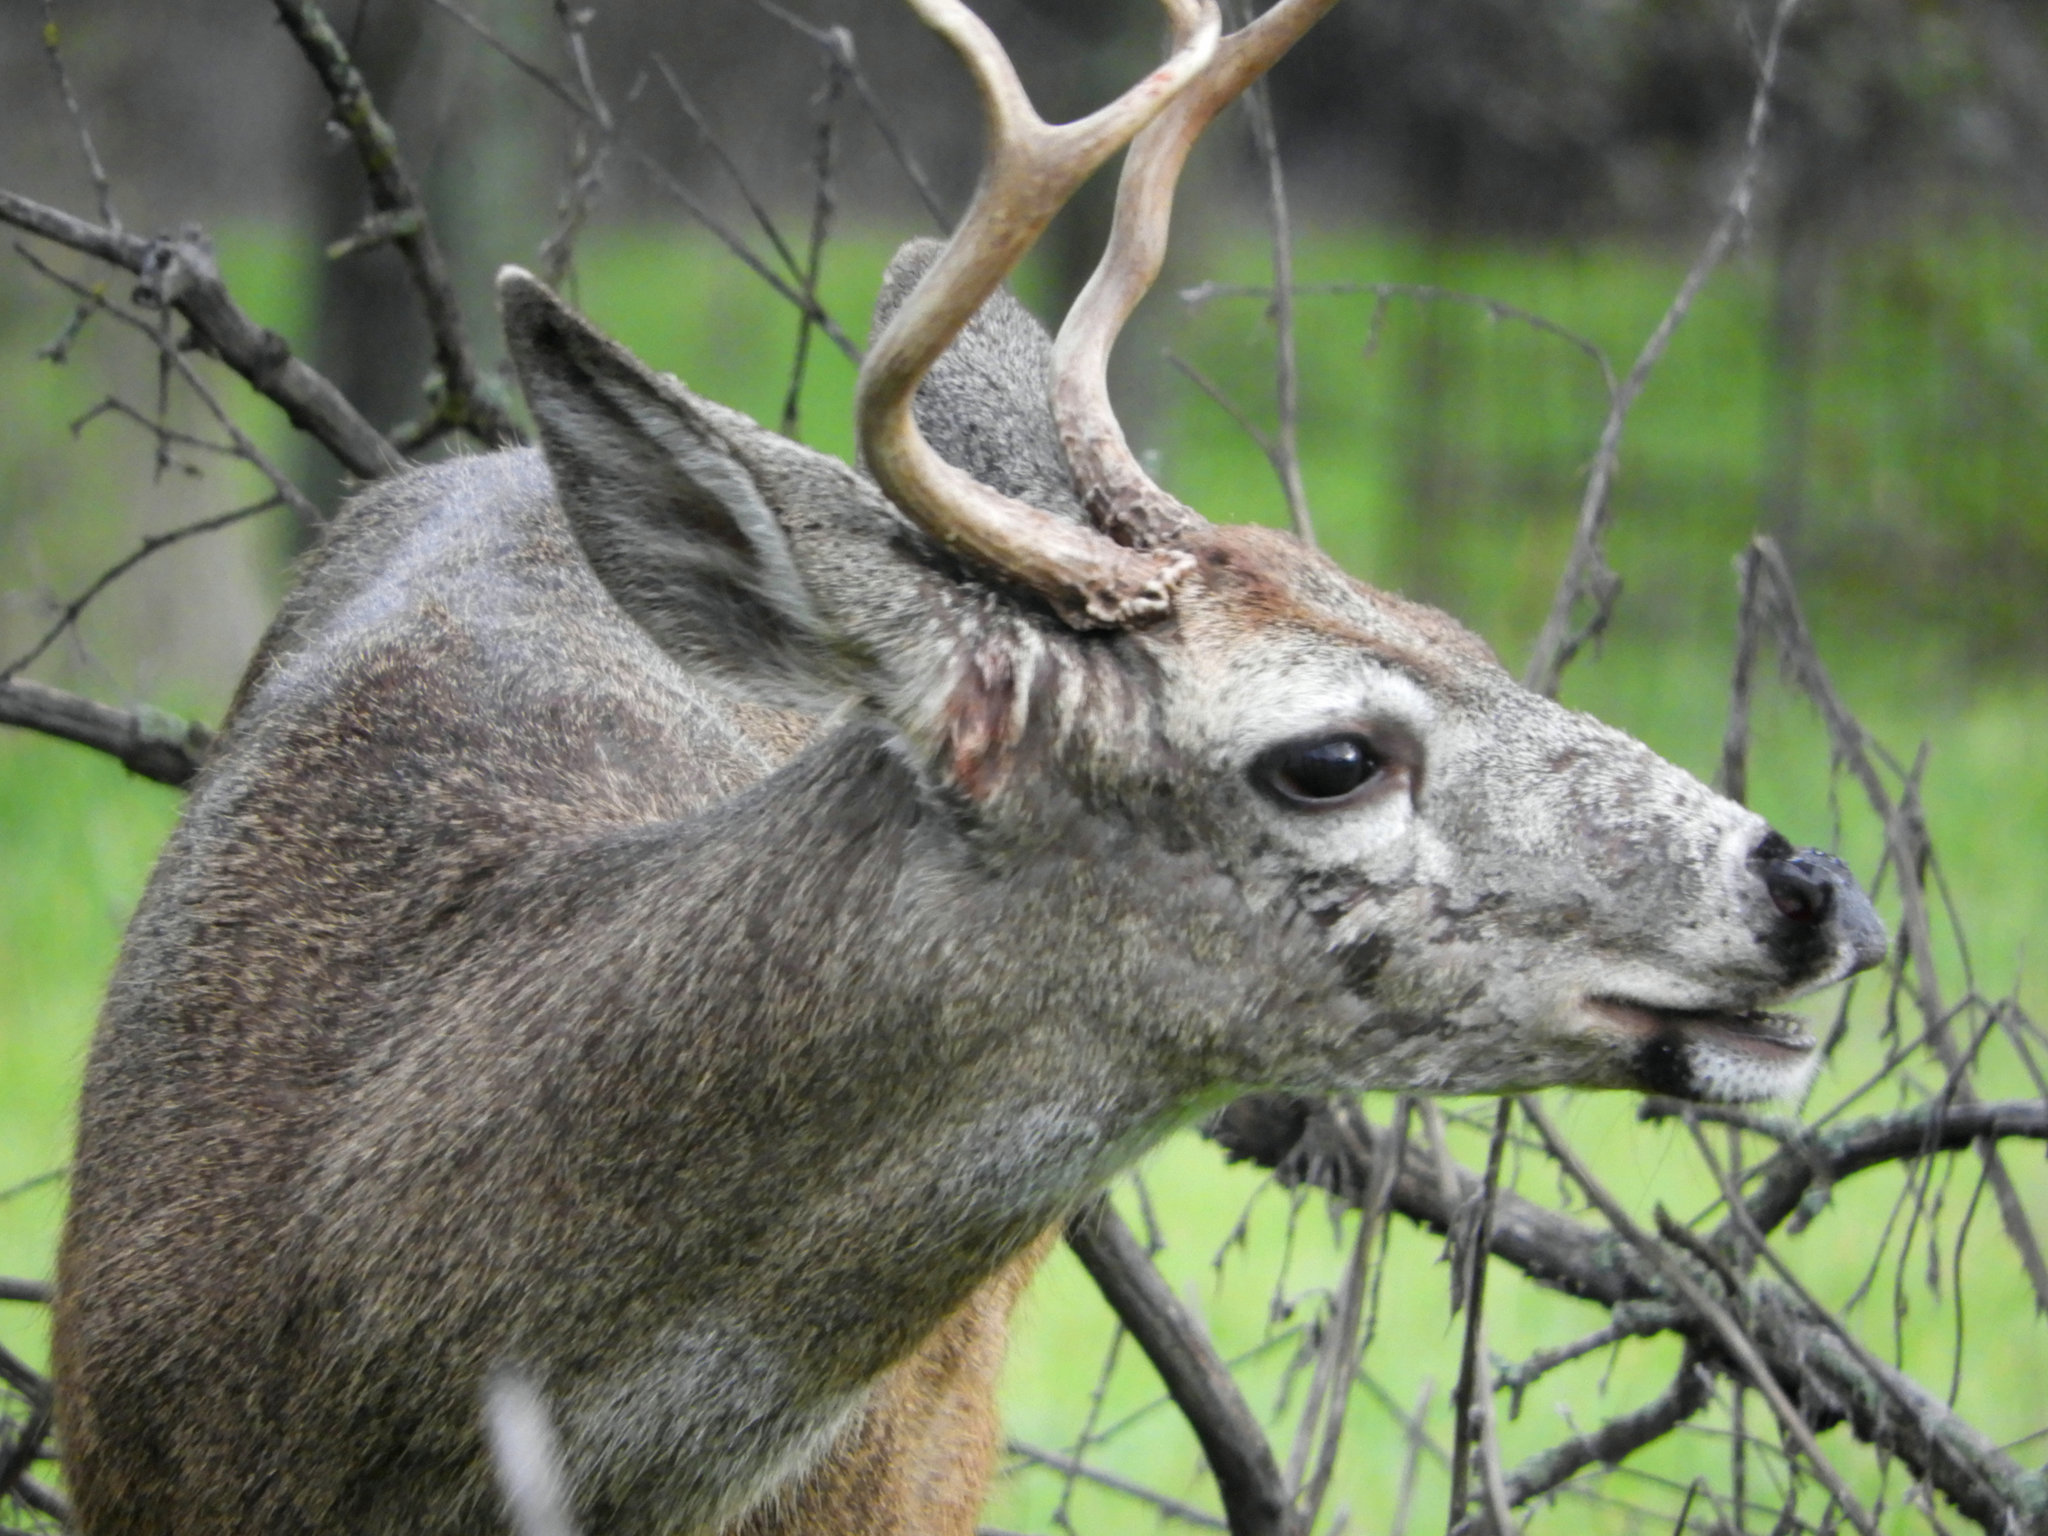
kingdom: Animalia
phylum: Chordata
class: Mammalia
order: Artiodactyla
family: Cervidae
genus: Odocoileus
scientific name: Odocoileus hemionus
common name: Mule deer
